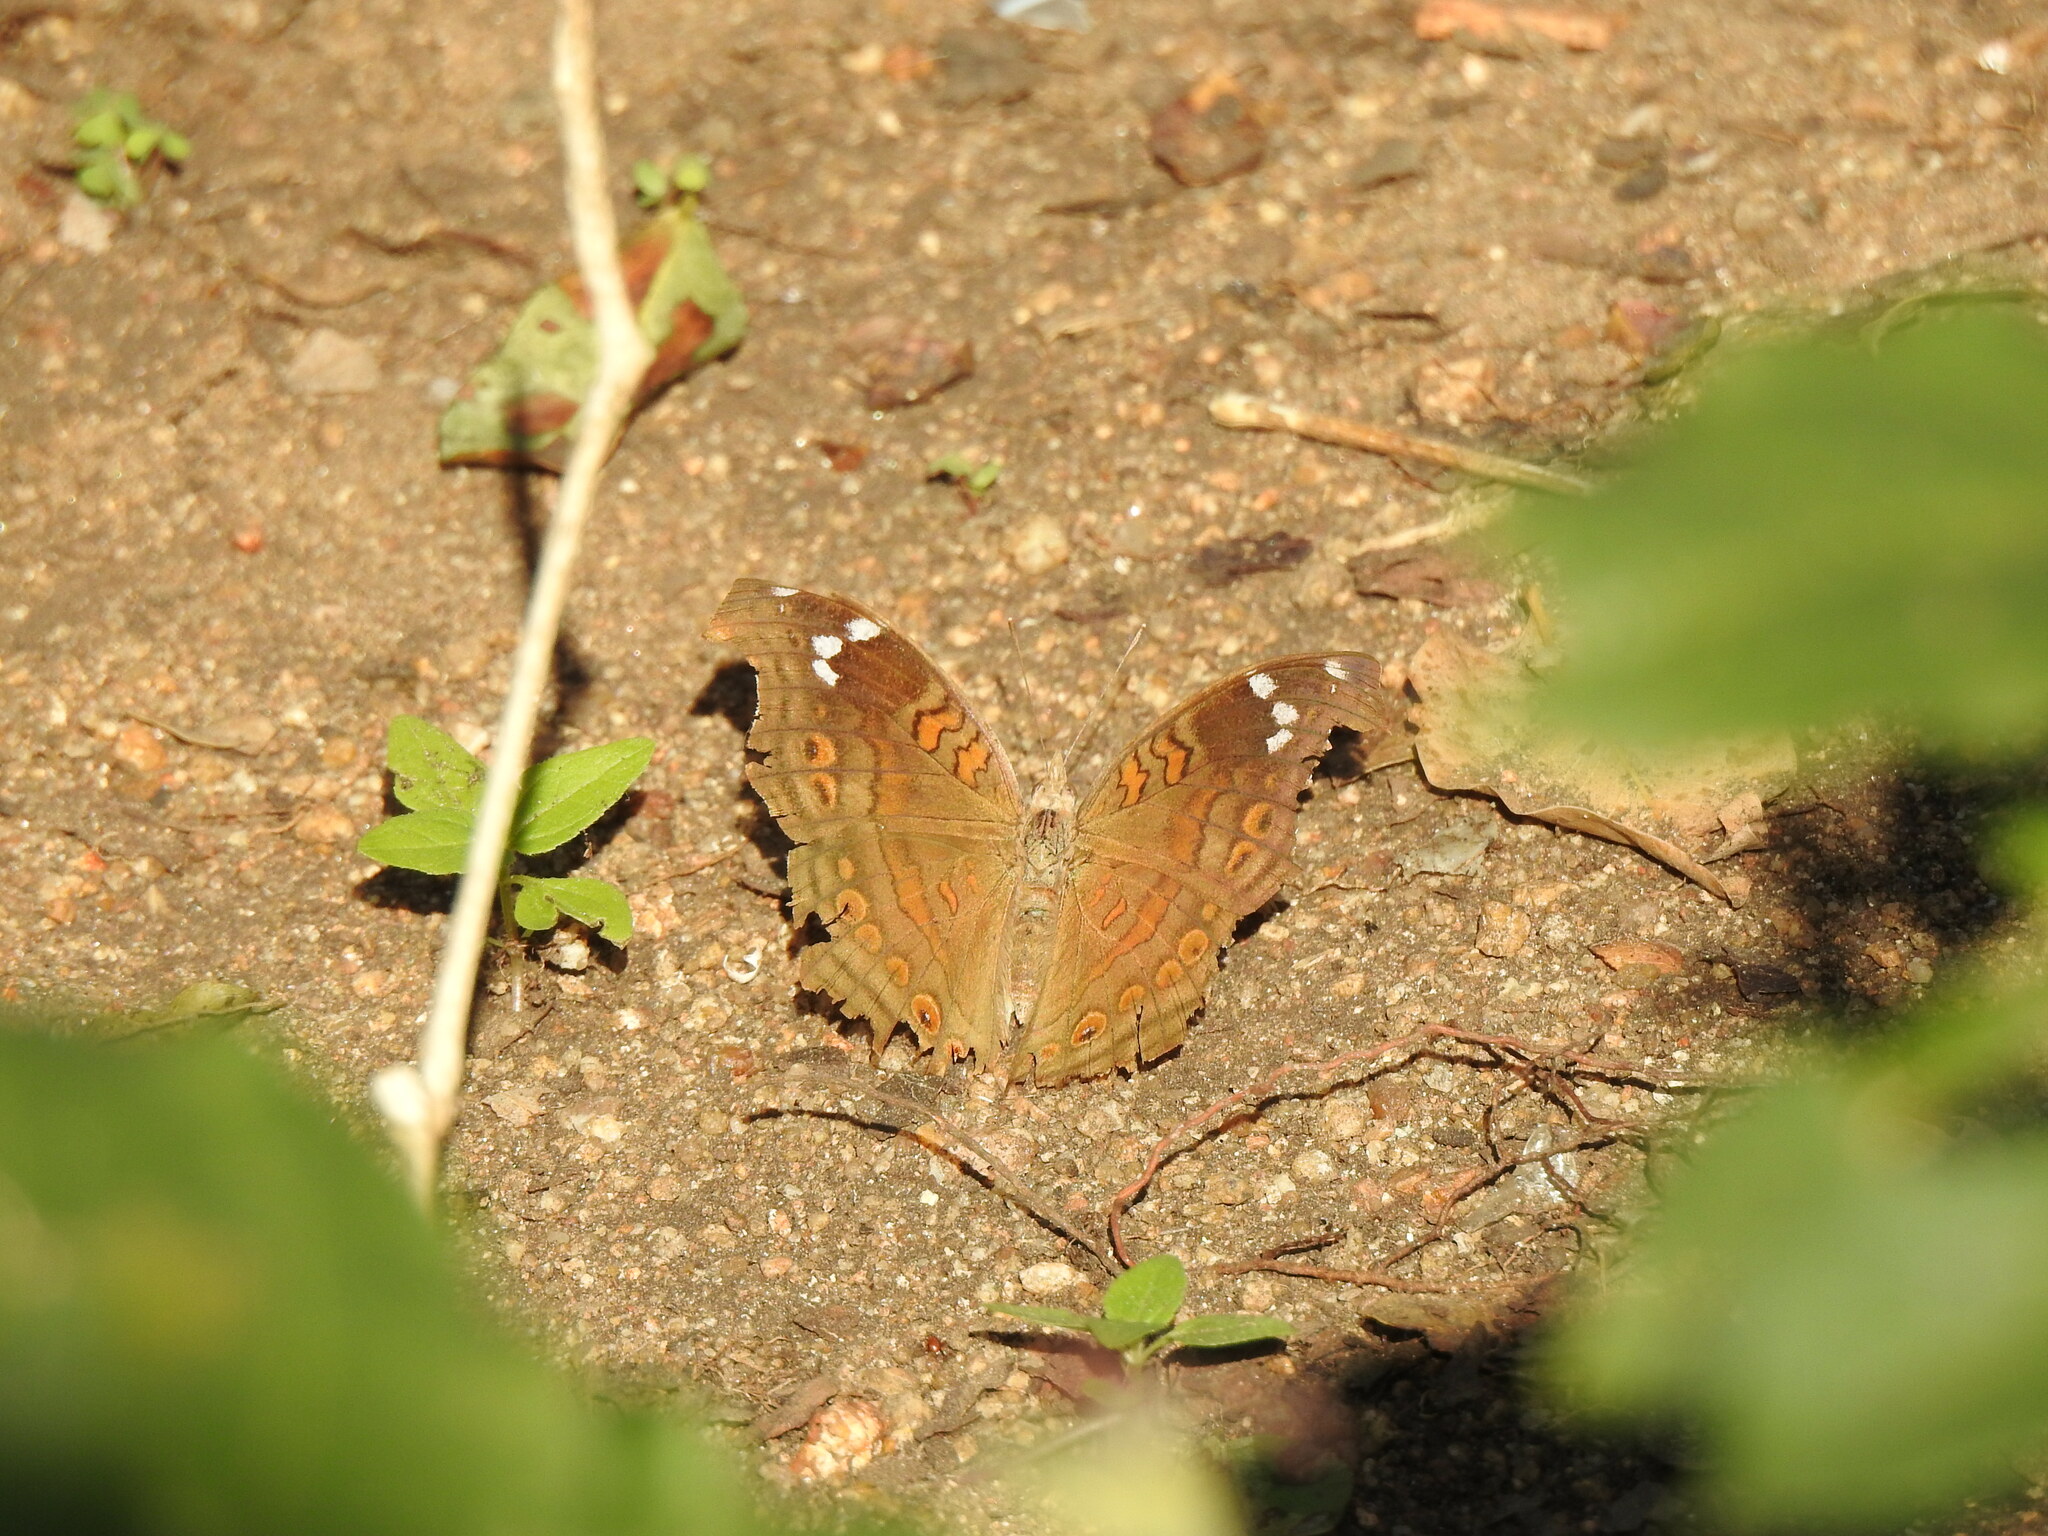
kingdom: Animalia
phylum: Arthropoda
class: Insecta
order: Lepidoptera
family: Nymphalidae
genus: Junonia
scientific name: Junonia natalica
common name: Brown pansy
